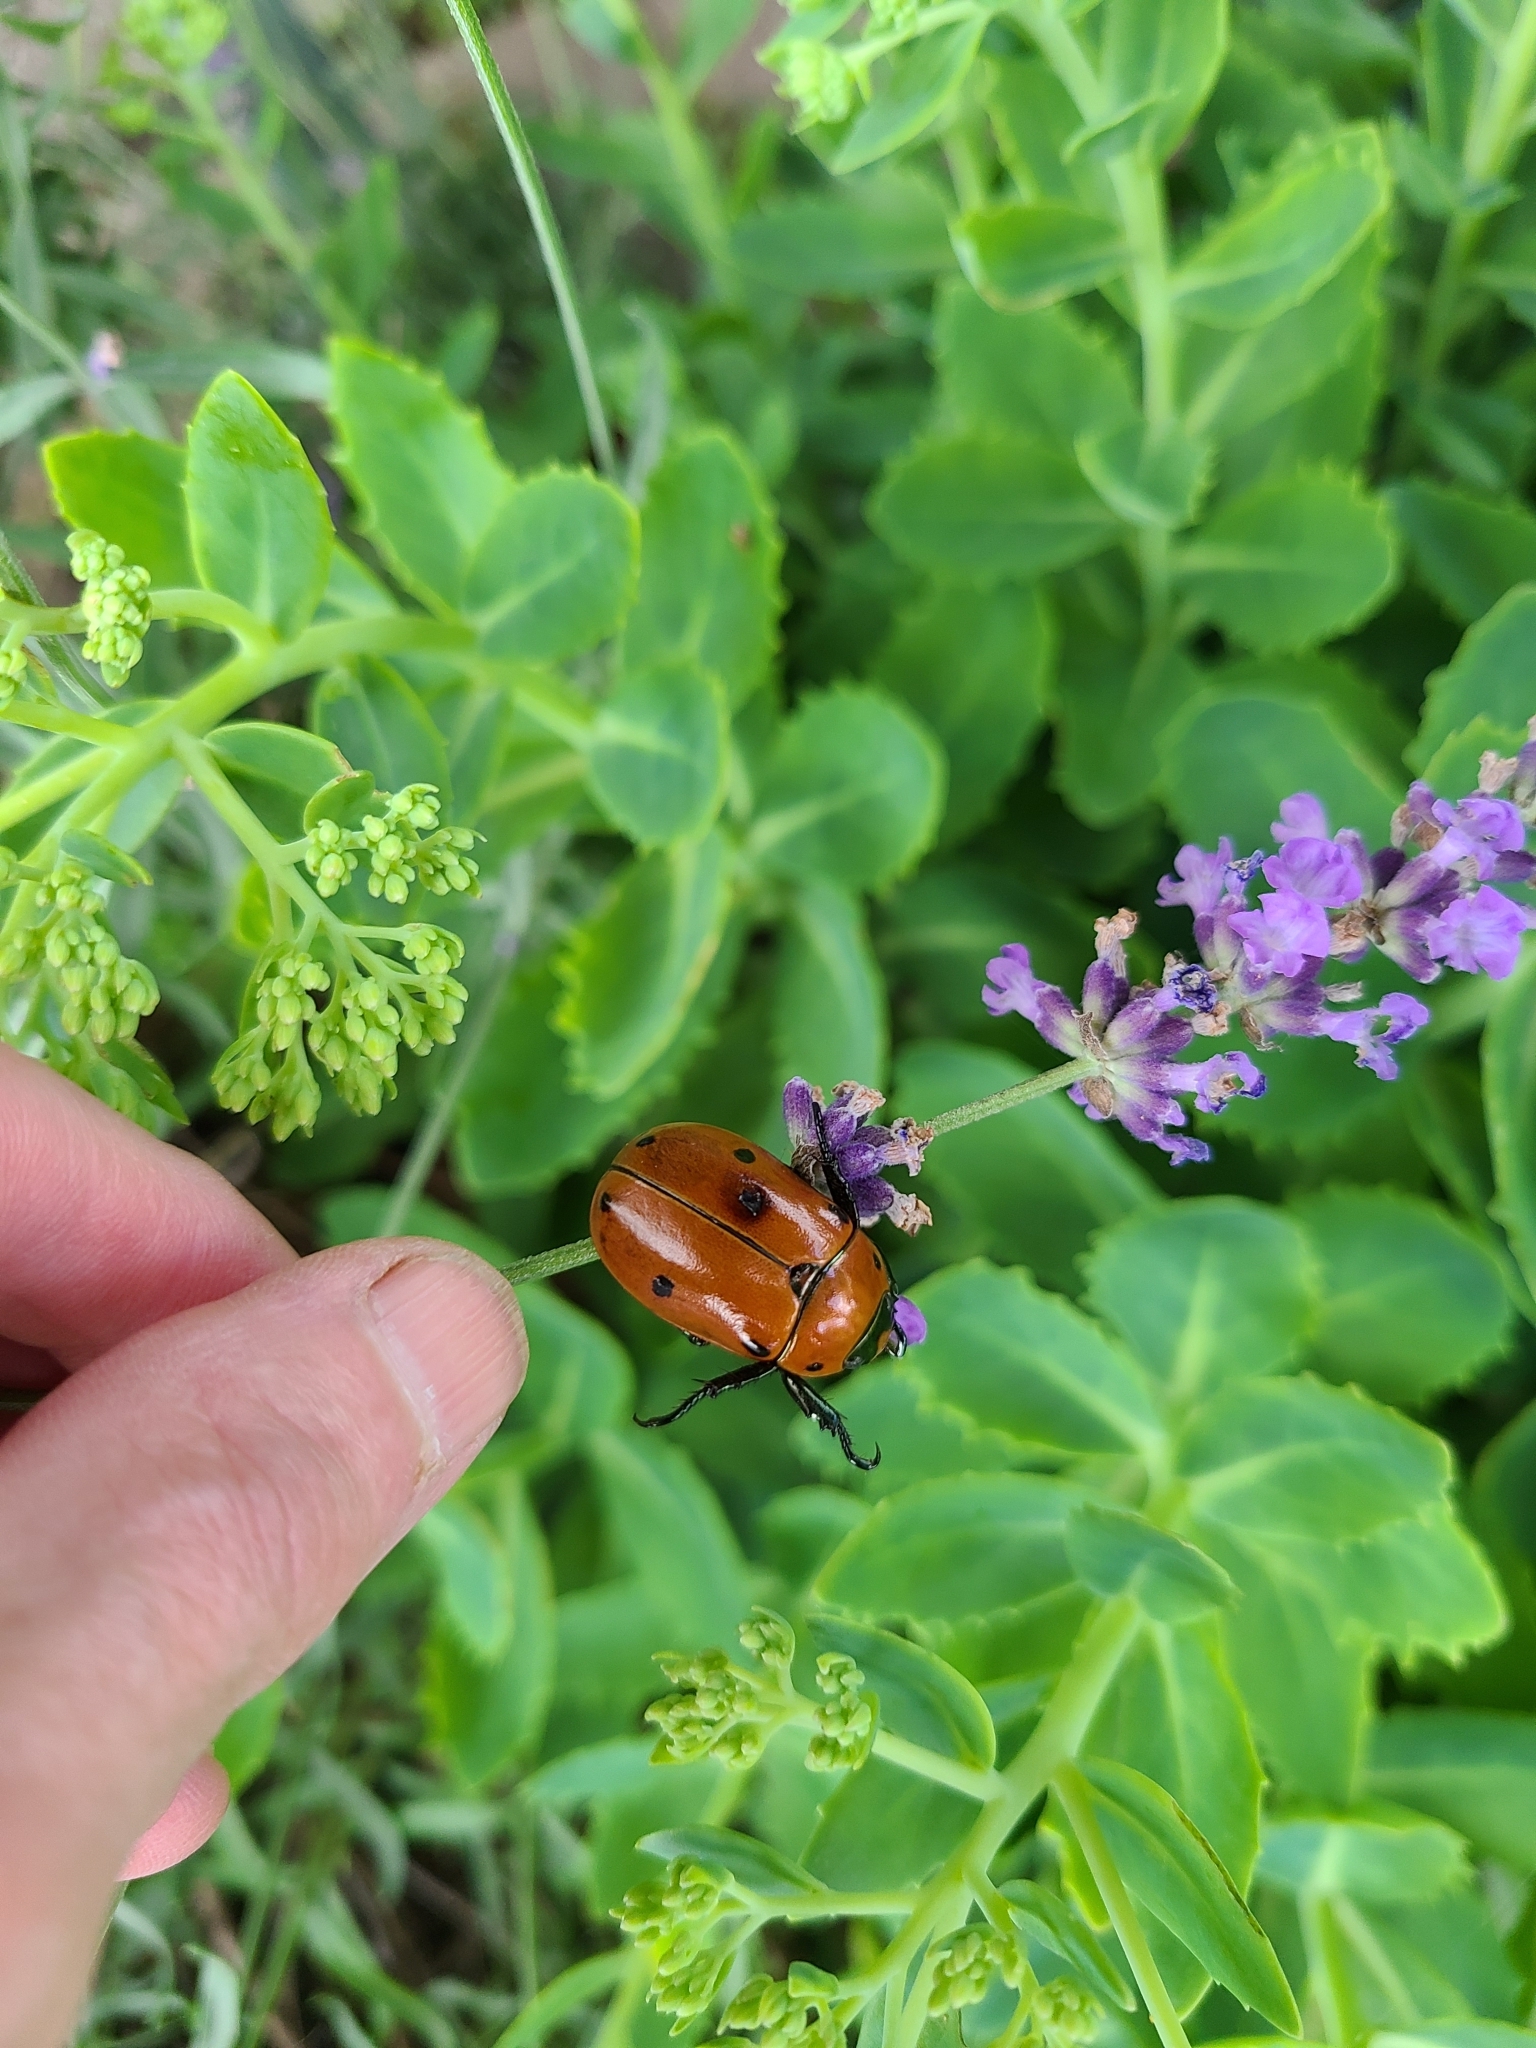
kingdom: Animalia
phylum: Arthropoda
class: Insecta
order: Coleoptera
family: Scarabaeidae
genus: Pelidnota
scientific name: Pelidnota punctata
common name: Grapevine beetle
